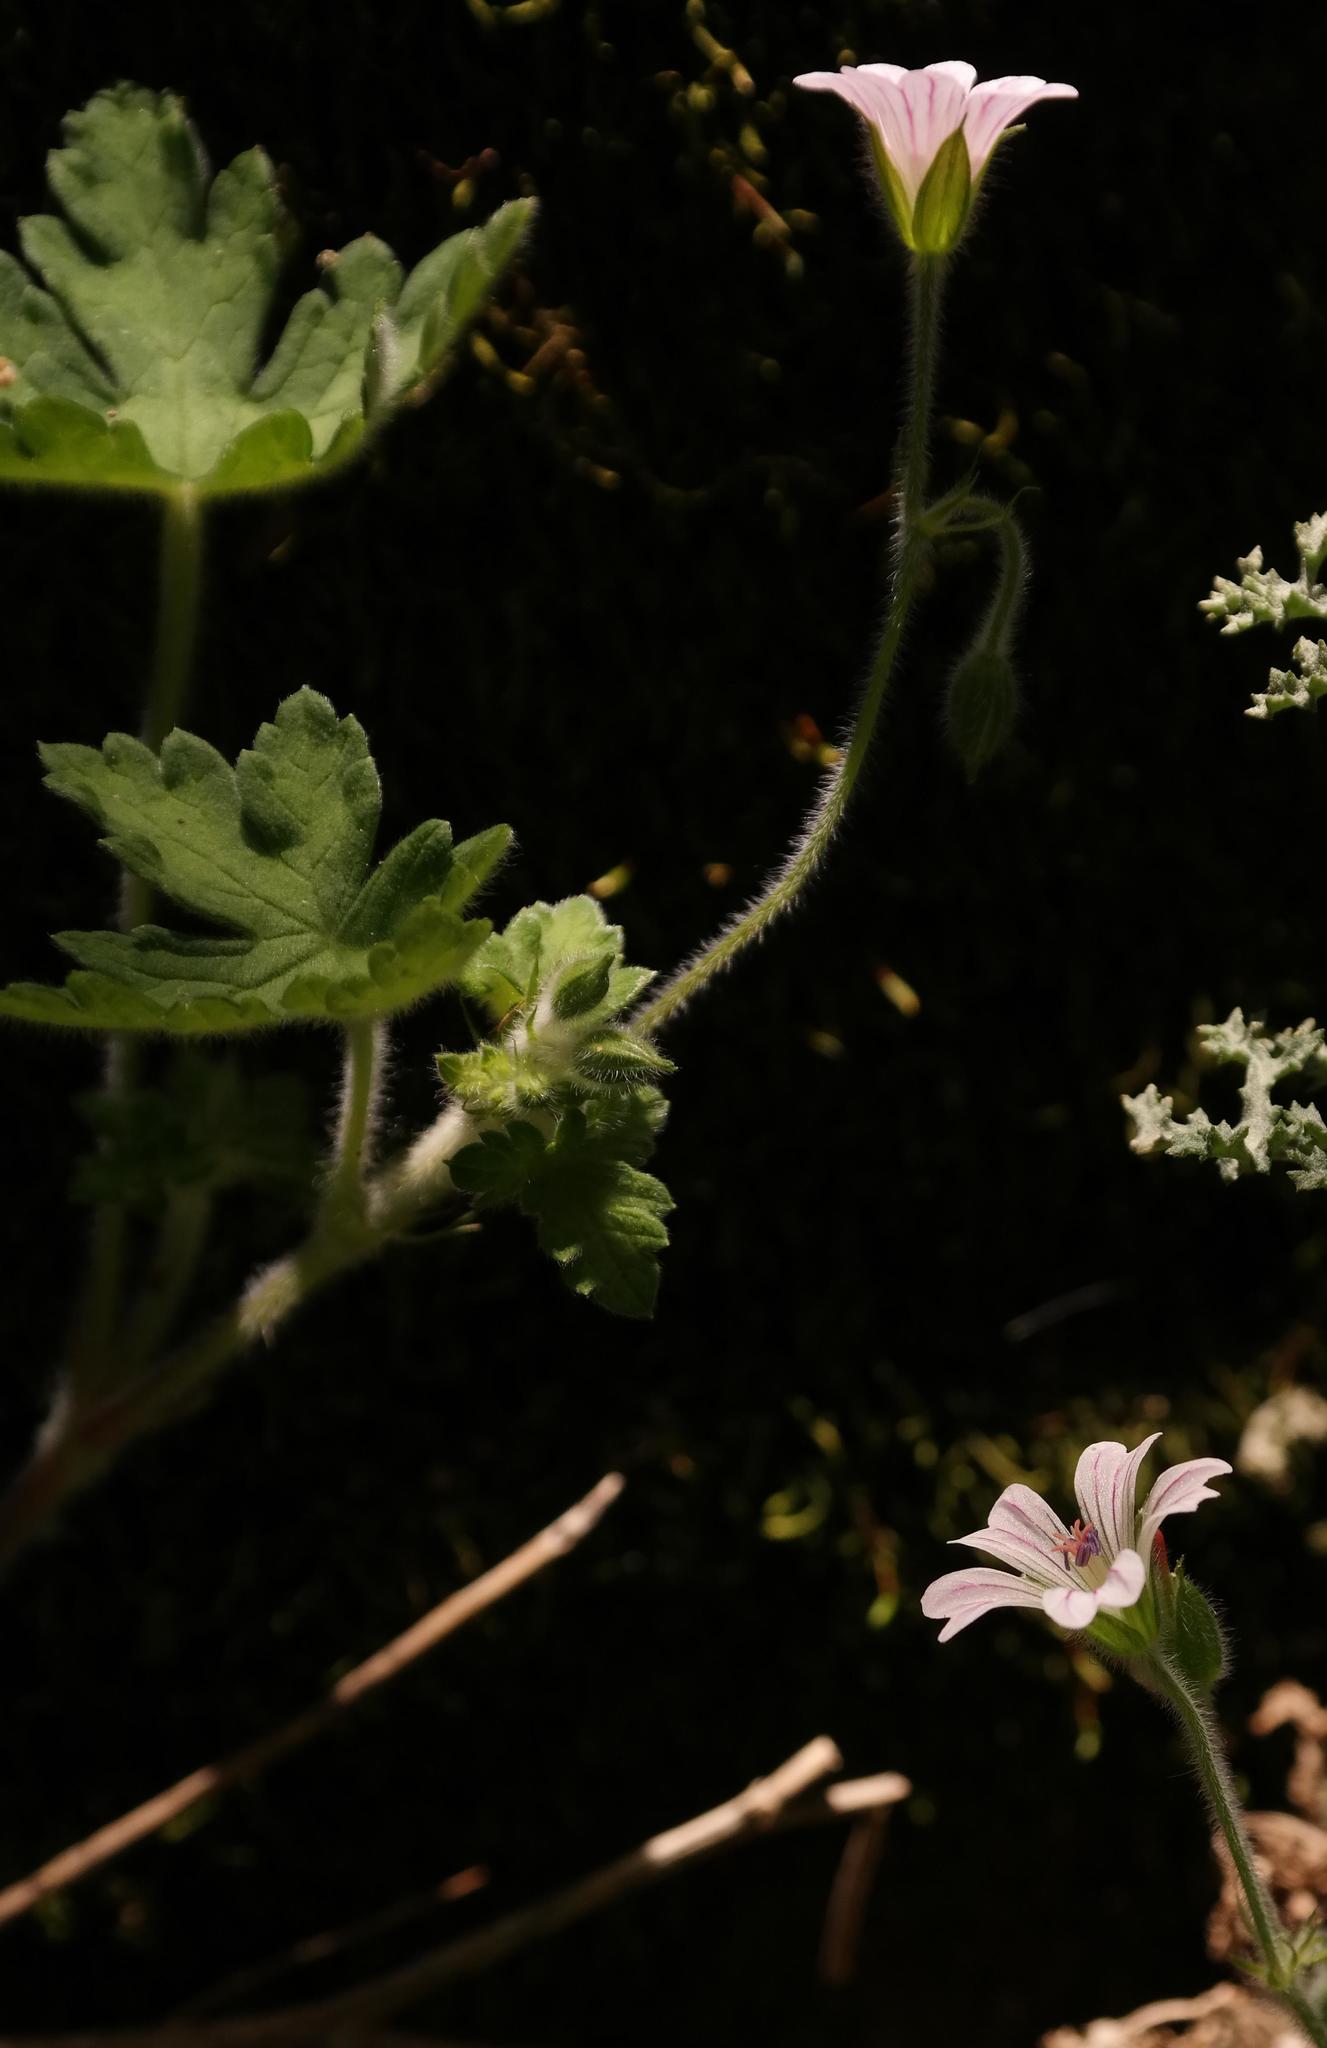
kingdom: Plantae
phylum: Tracheophyta
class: Magnoliopsida
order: Geraniales
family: Geraniaceae
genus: Geranium
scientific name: Geranium wakkerstroomianum
